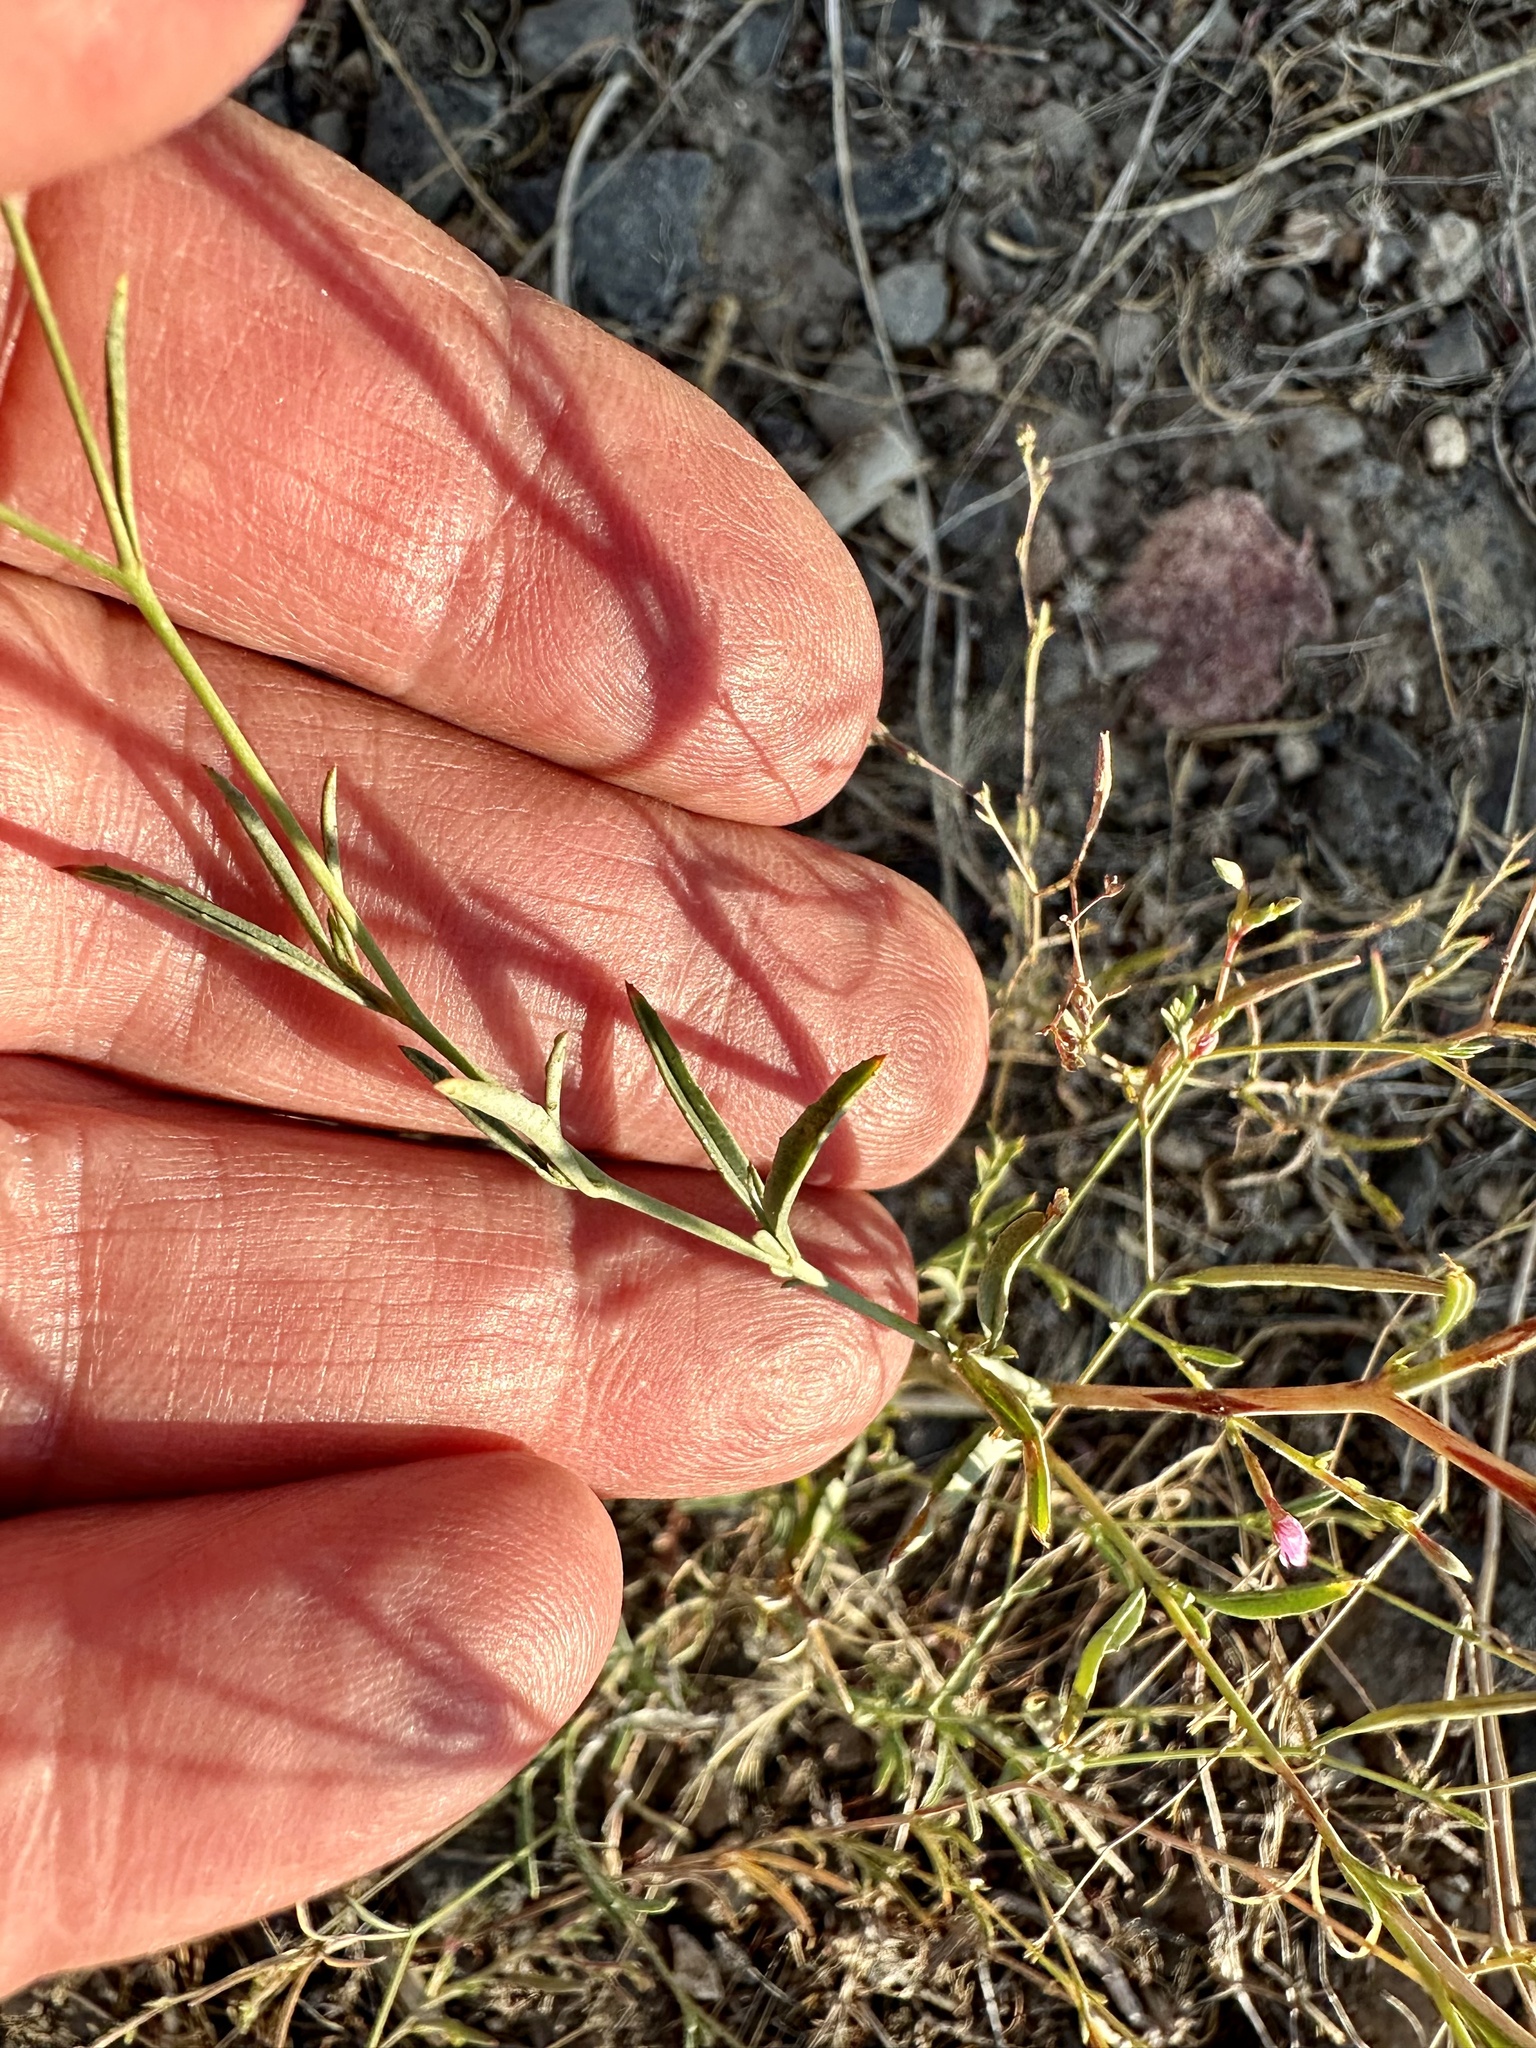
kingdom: Plantae
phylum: Tracheophyta
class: Magnoliopsida
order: Myrtales
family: Onagraceae
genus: Epilobium
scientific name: Epilobium brachycarpum
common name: Annual willowherb
